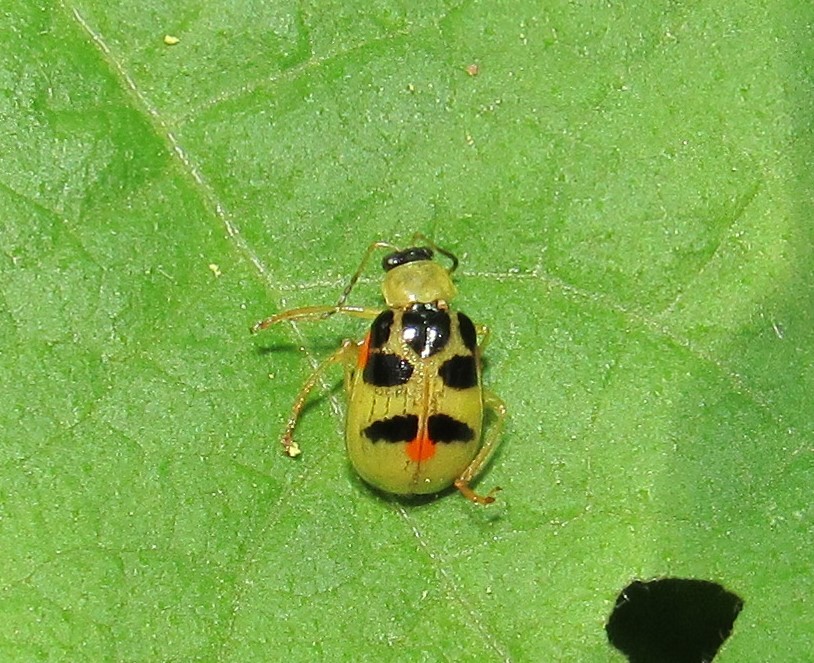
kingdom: Animalia
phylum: Arthropoda
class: Insecta
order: Coleoptera
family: Chrysomelidae
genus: Cerotoma
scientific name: Cerotoma ruficornis
